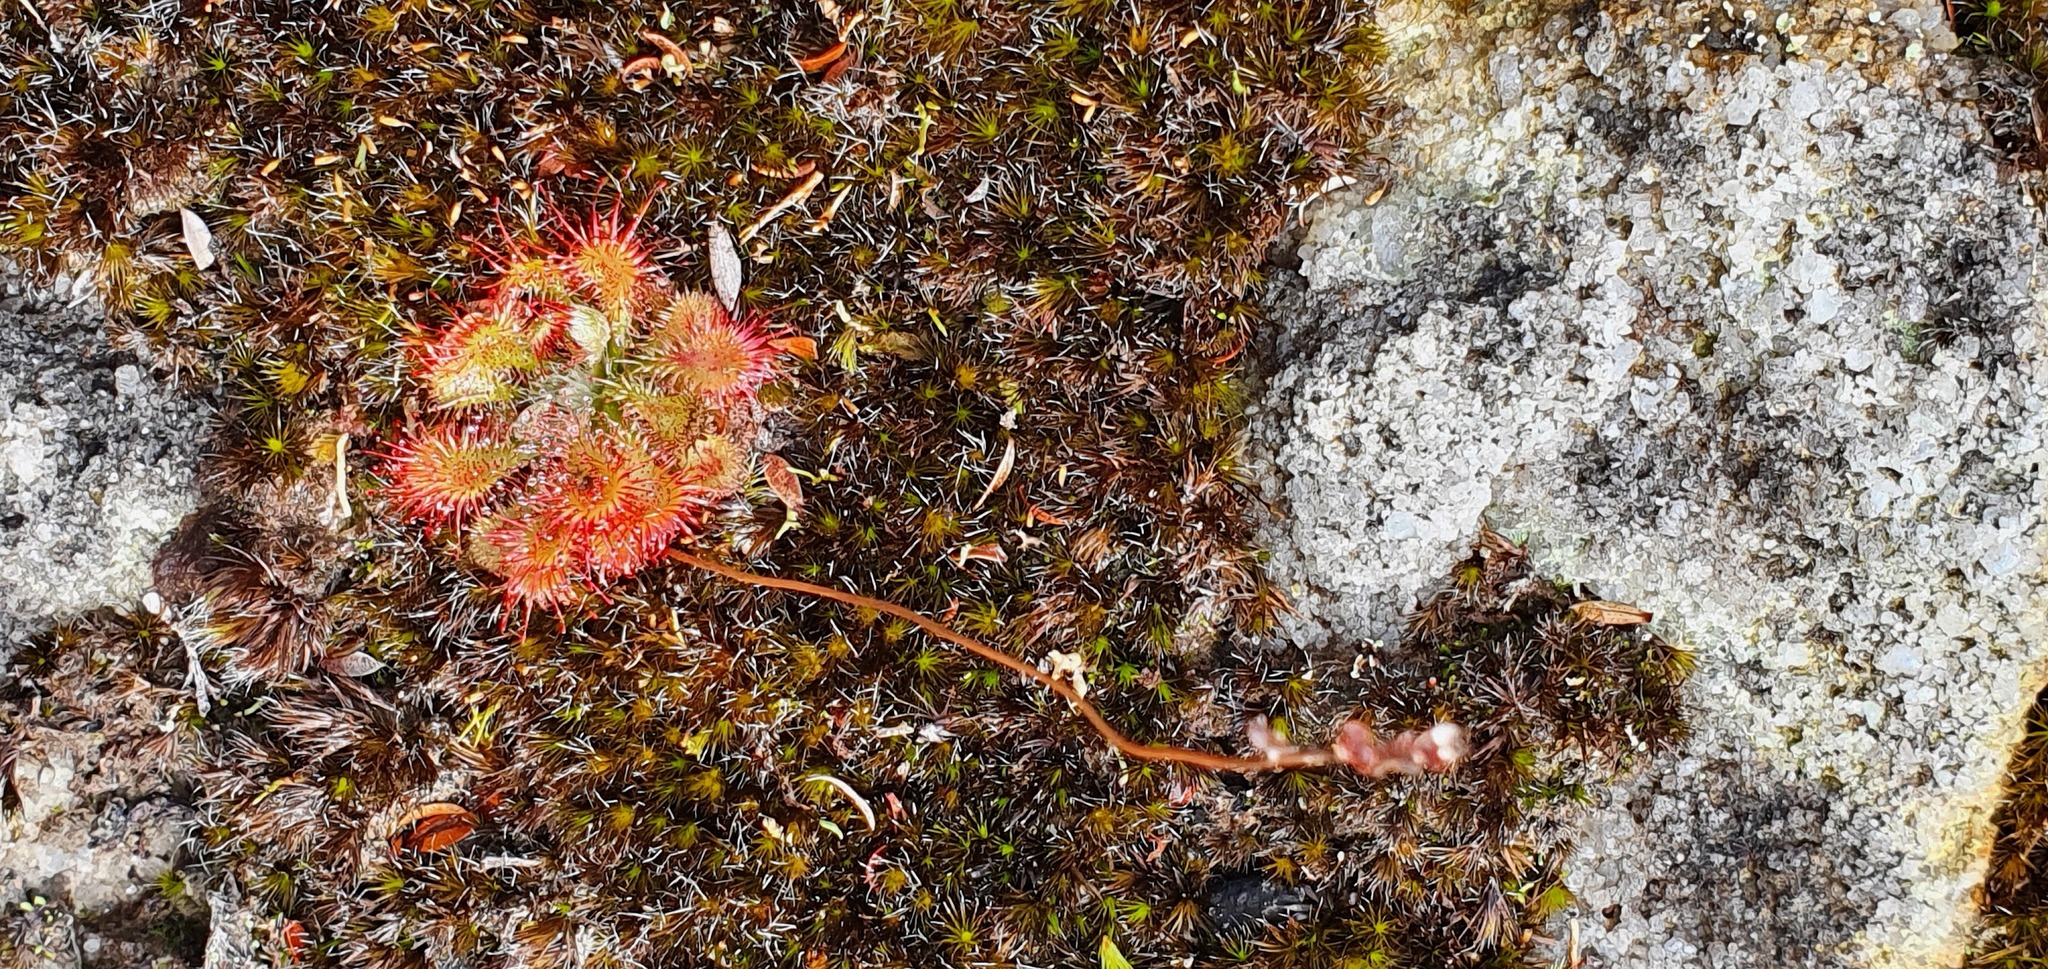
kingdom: Plantae
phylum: Tracheophyta
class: Magnoliopsida
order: Caryophyllales
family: Droseraceae
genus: Drosera
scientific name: Drosera spatulata
